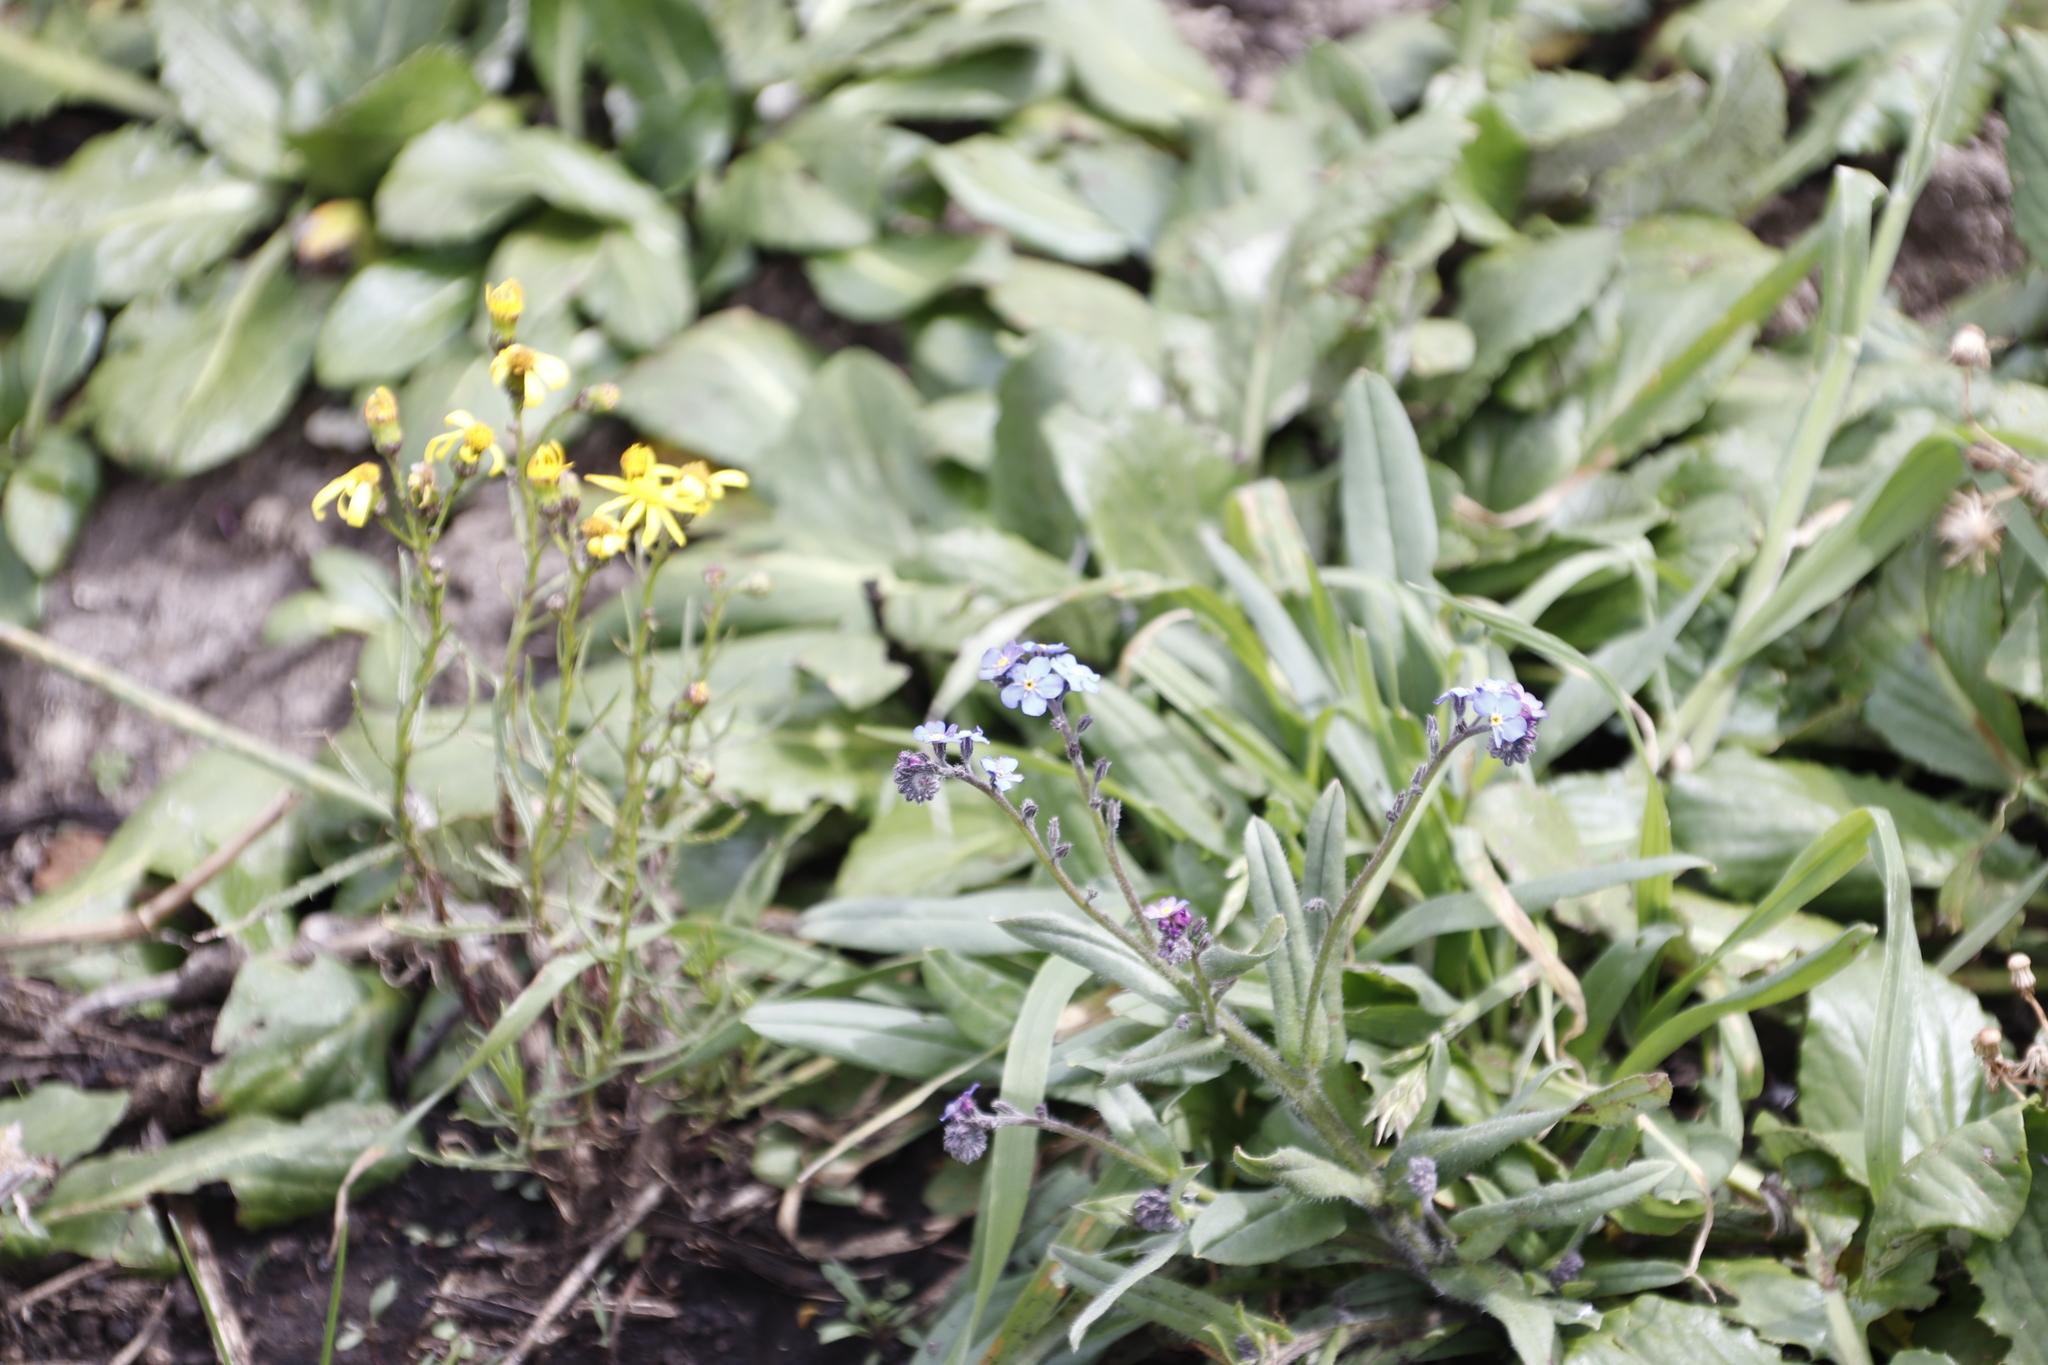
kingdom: Plantae
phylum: Tracheophyta
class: Magnoliopsida
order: Boraginales
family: Boraginaceae
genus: Myosotis
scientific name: Myosotis semiamplexicaulis
